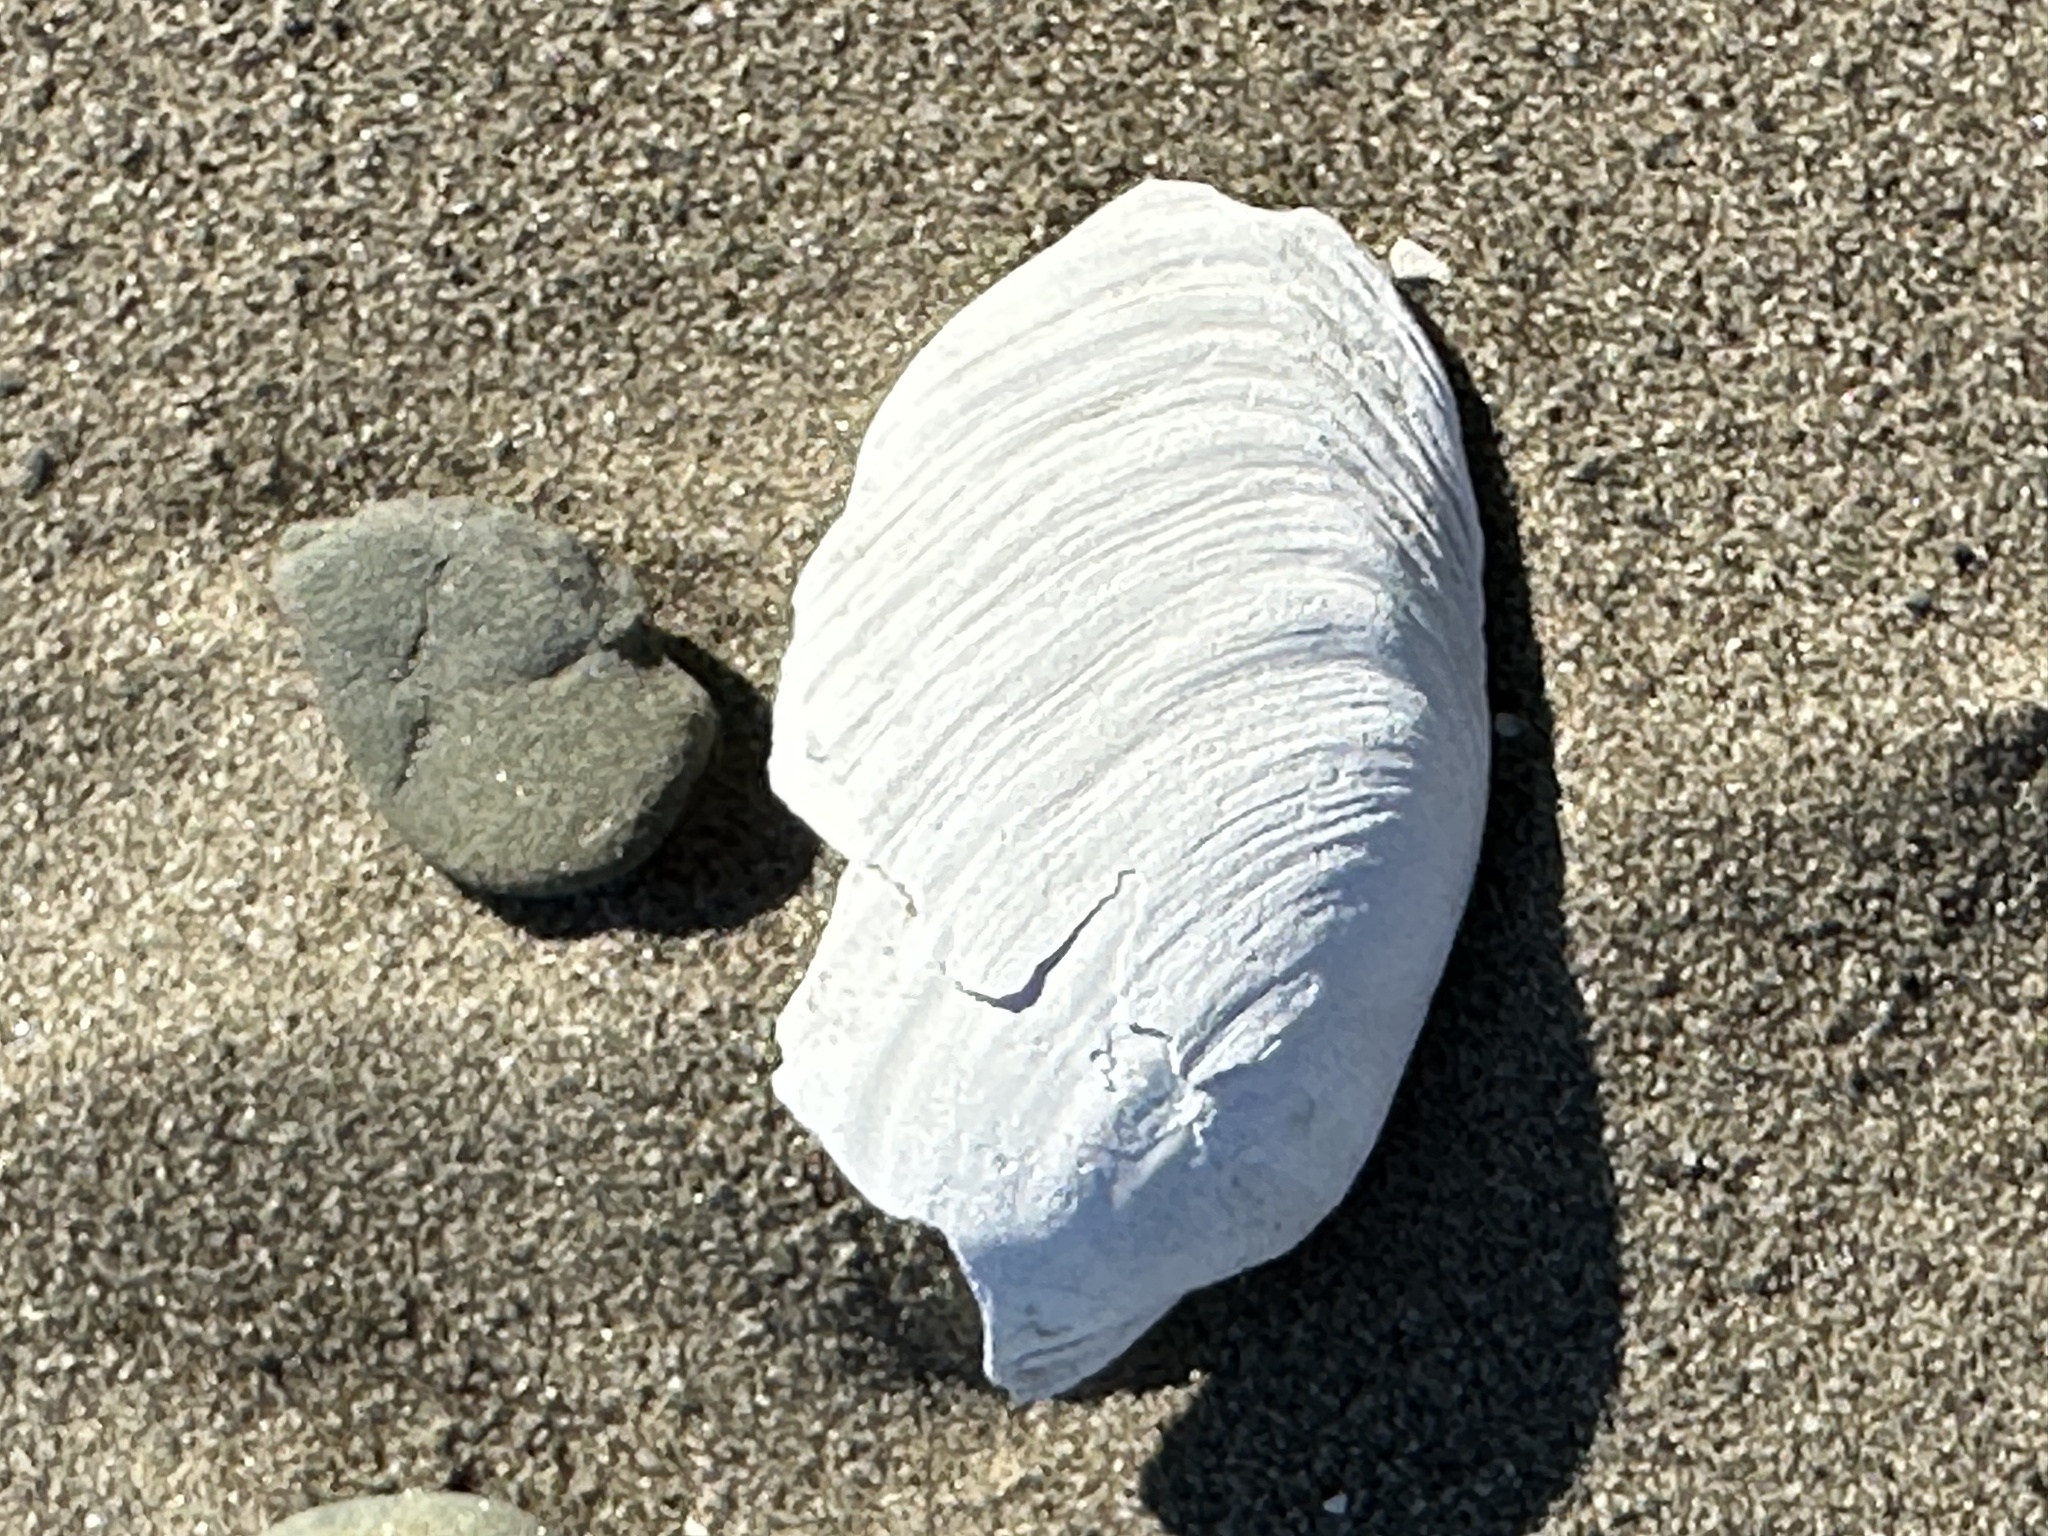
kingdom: Animalia
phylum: Mollusca
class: Bivalvia
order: Myida
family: Myidae
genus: Mya
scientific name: Mya arenaria
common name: Soft-shelled clam
